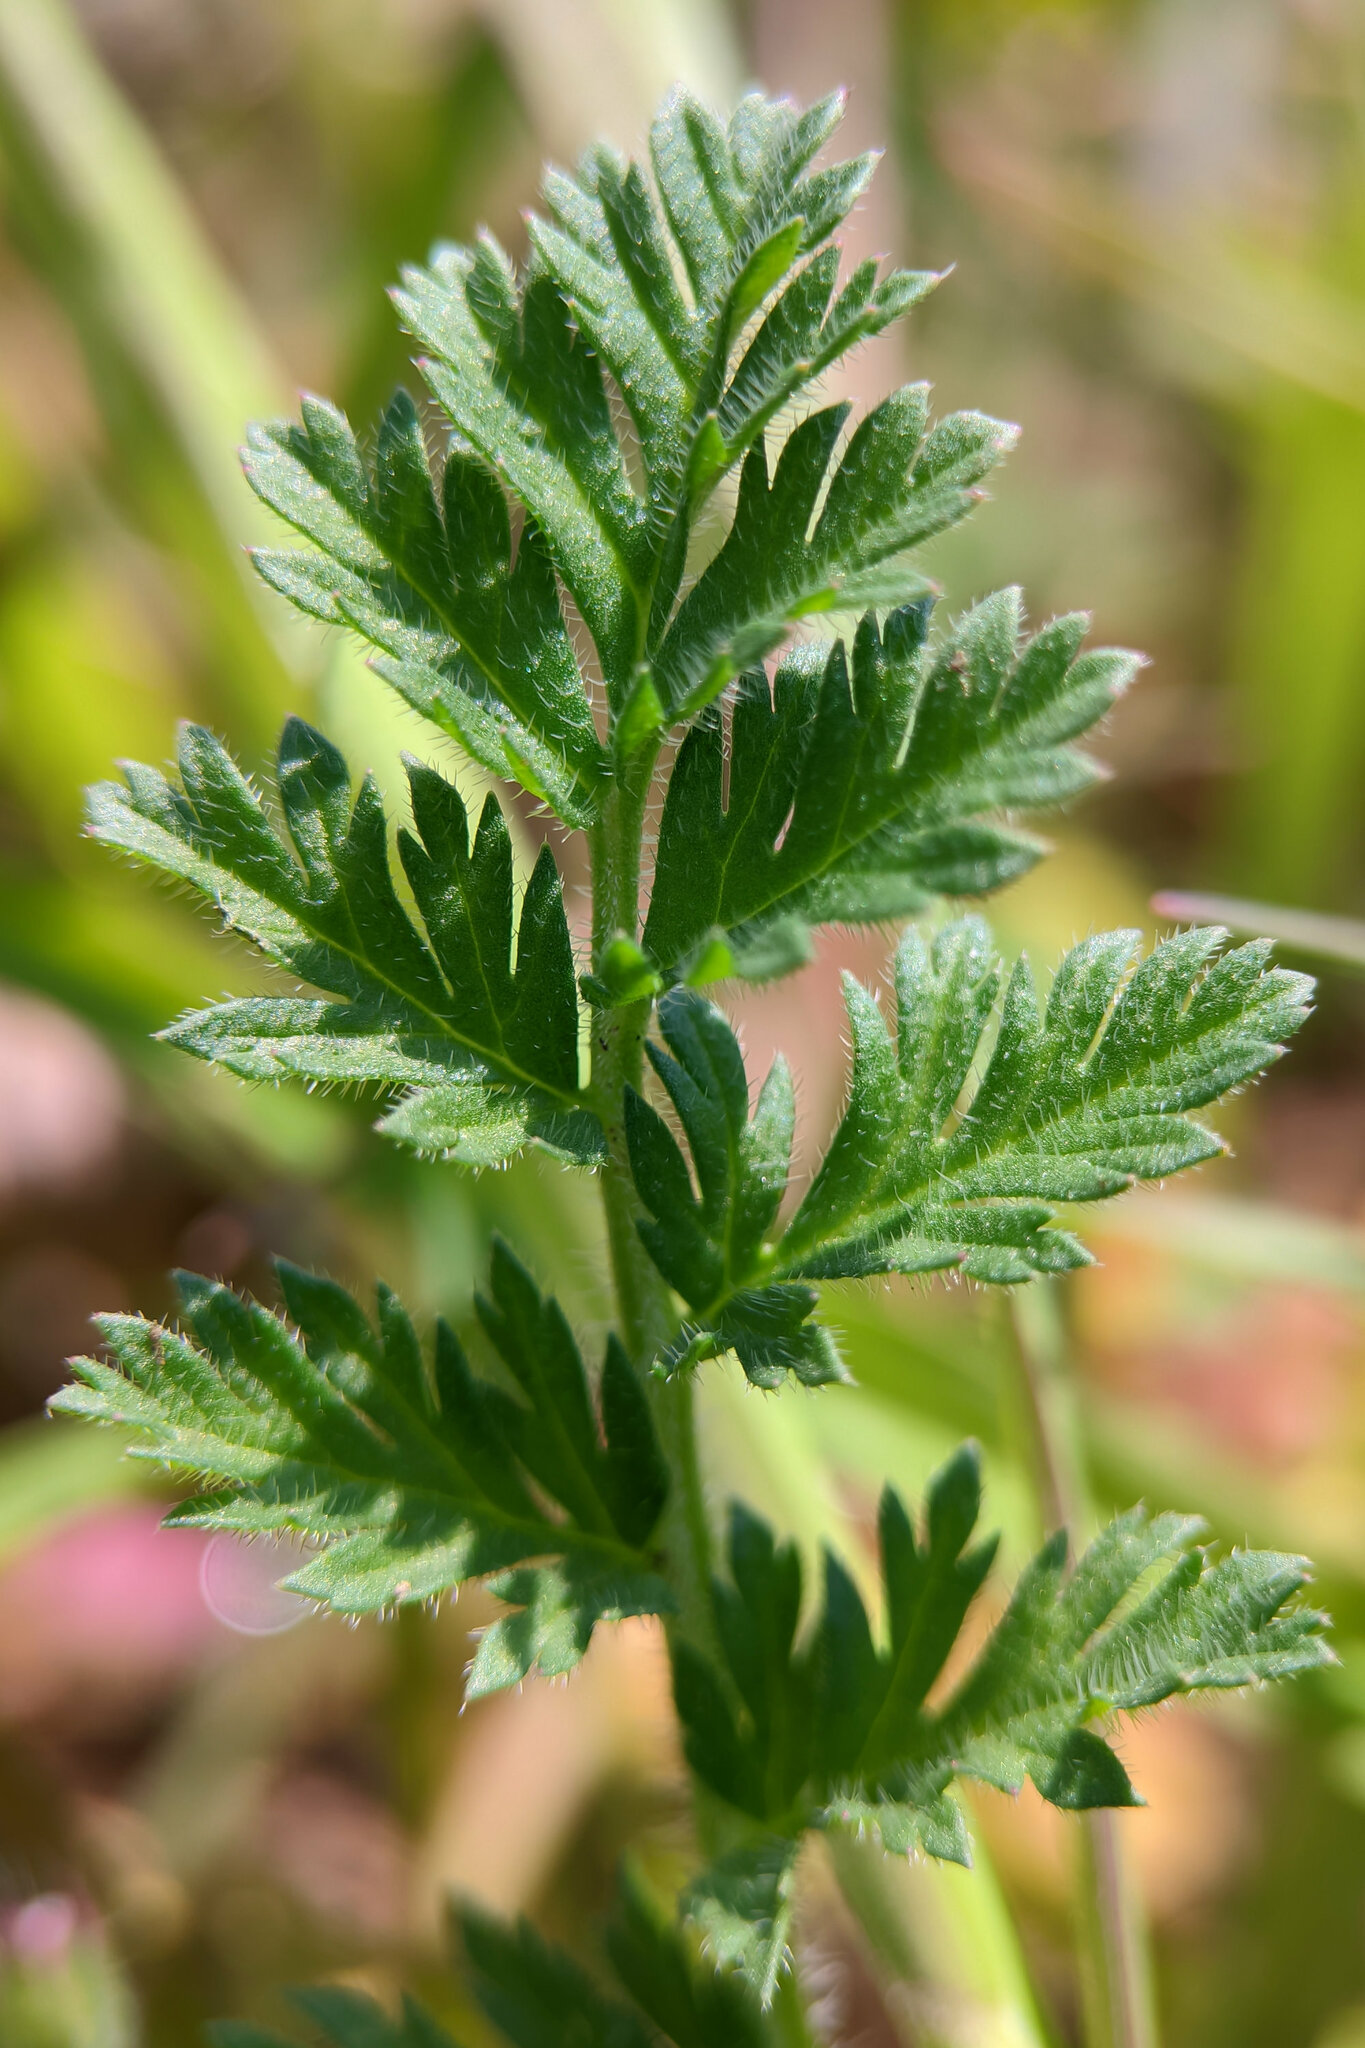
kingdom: Plantae
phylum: Tracheophyta
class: Magnoliopsida
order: Geraniales
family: Geraniaceae
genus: Erodium
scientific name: Erodium cicutarium
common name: Common stork's-bill
